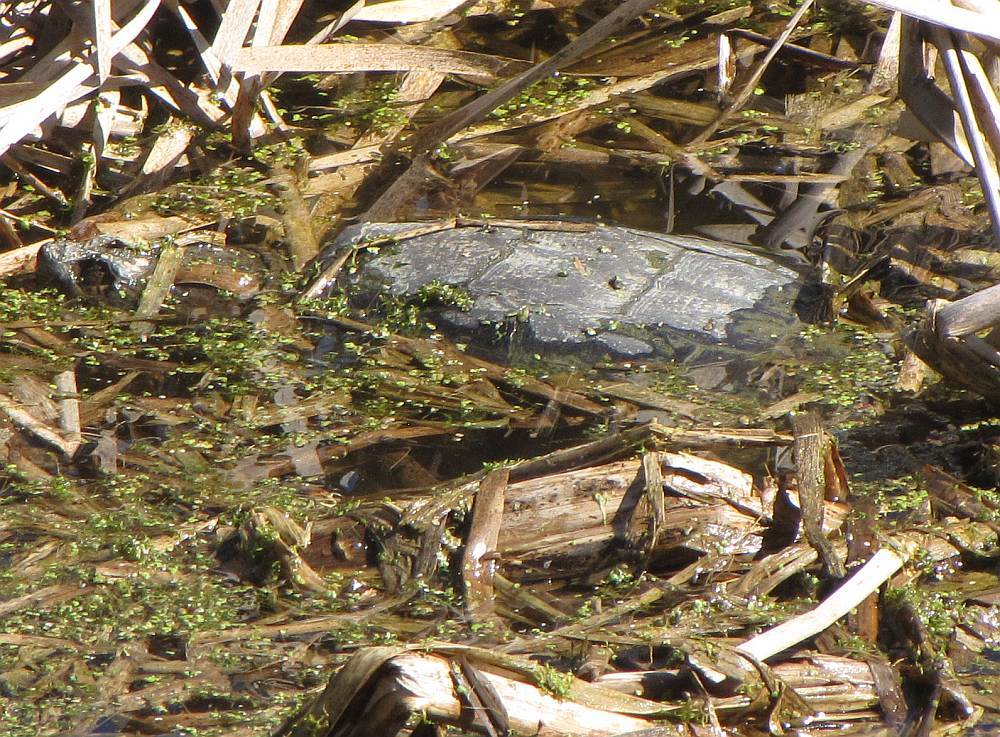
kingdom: Animalia
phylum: Chordata
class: Testudines
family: Chelydridae
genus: Chelydra
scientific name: Chelydra serpentina
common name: Common snapping turtle
